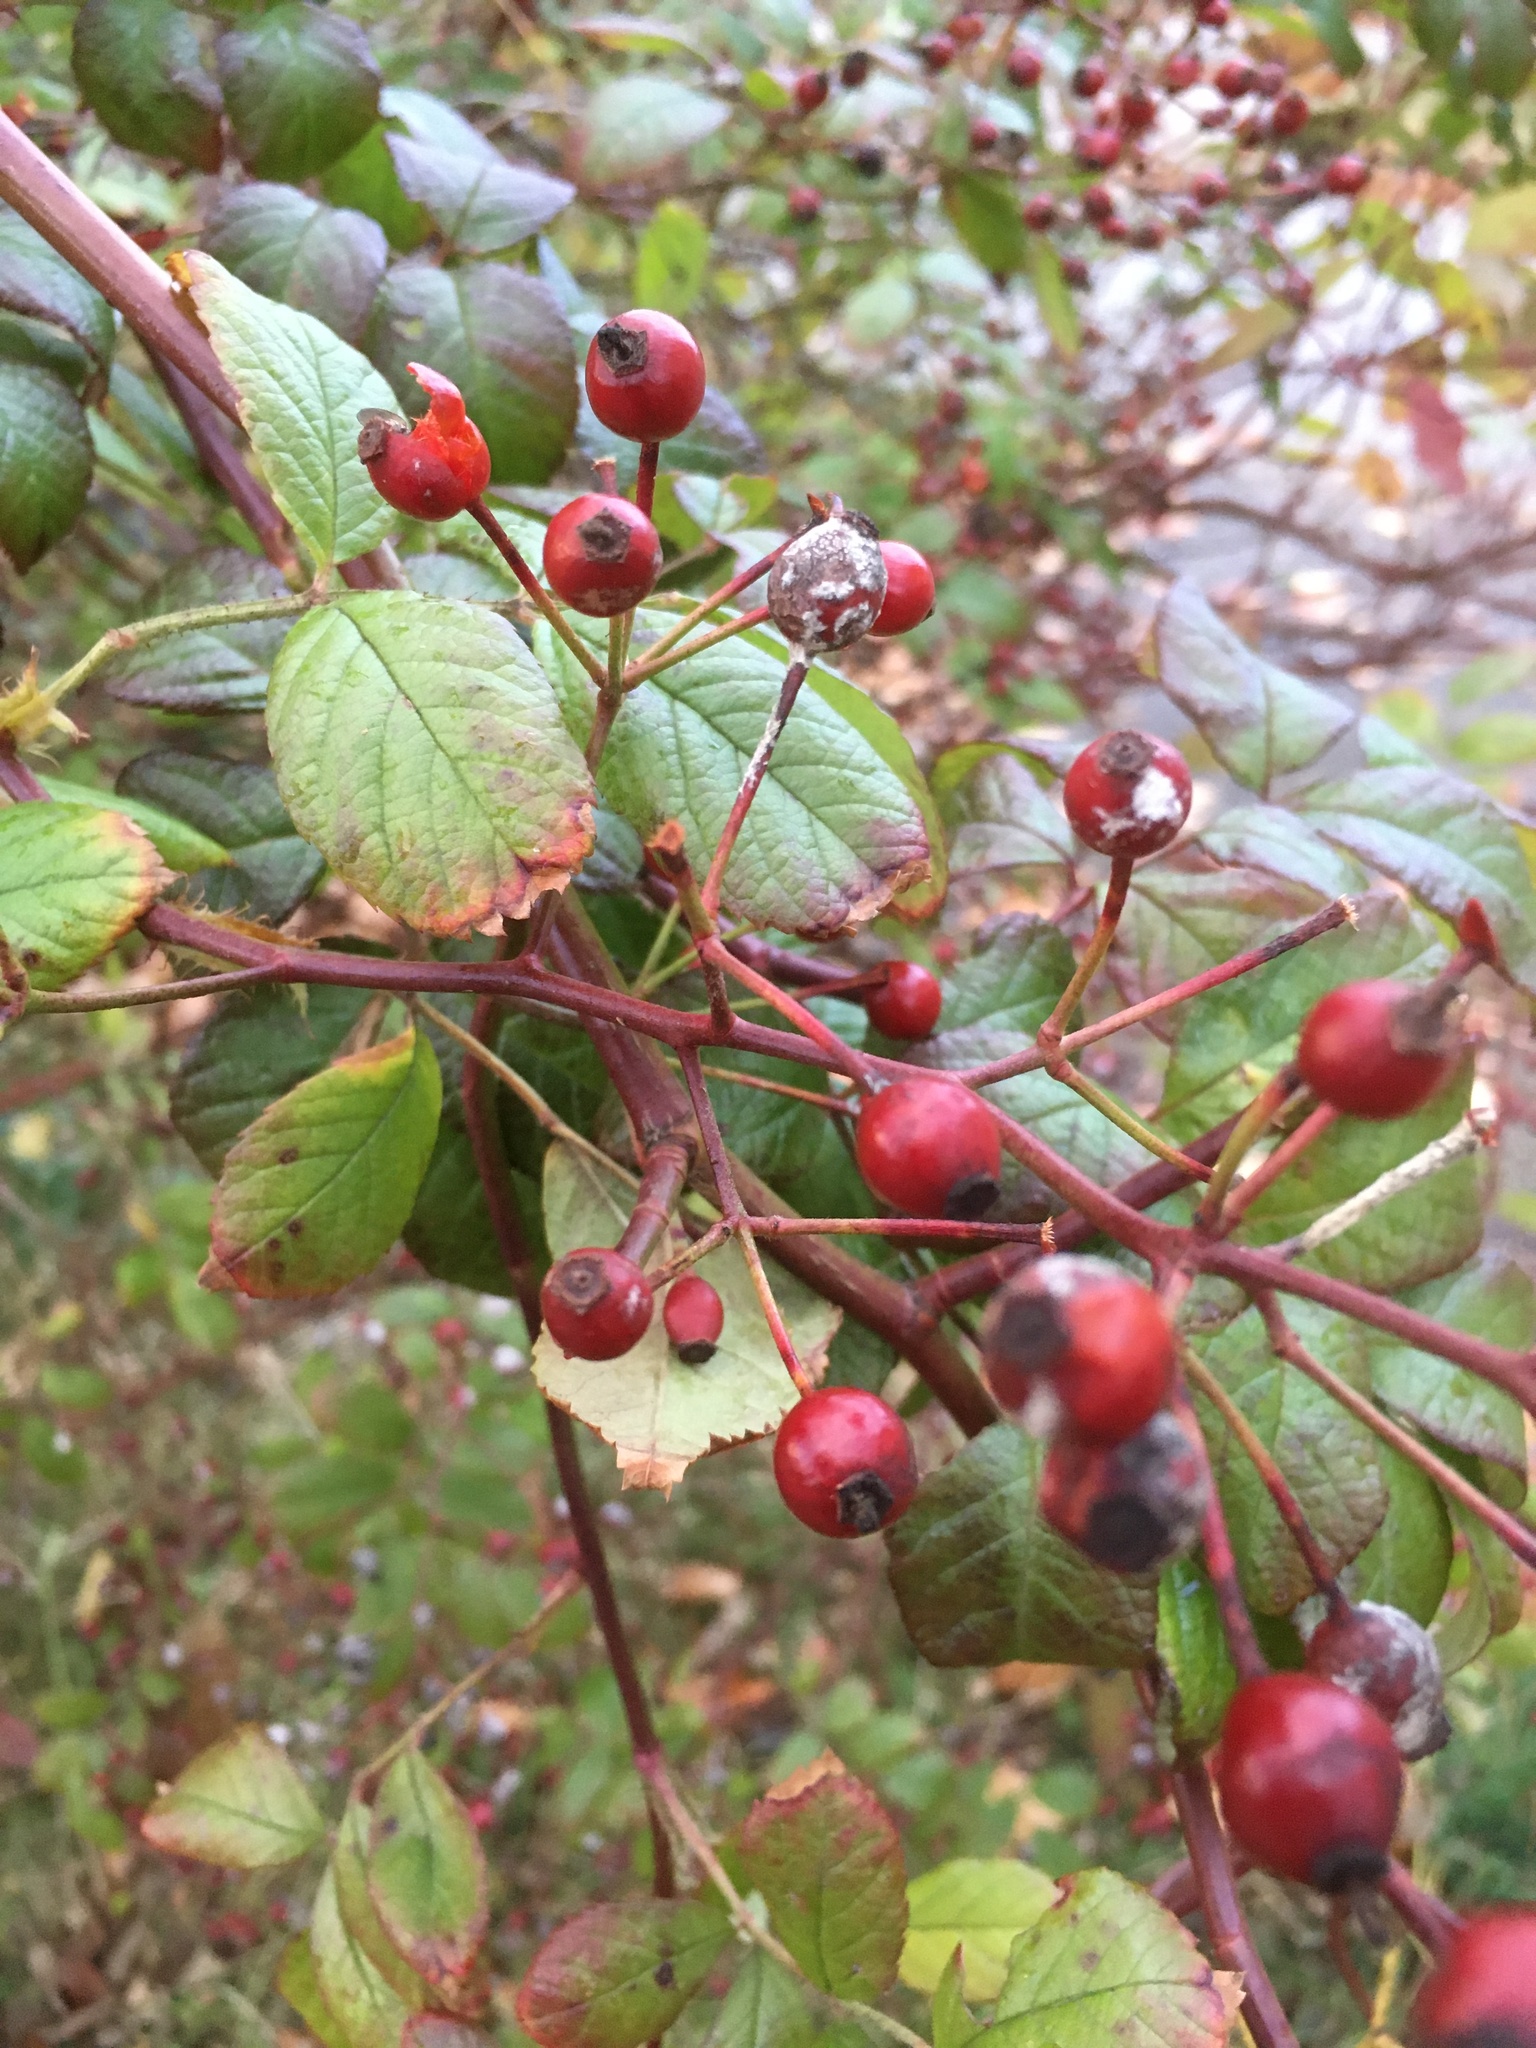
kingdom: Plantae
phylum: Tracheophyta
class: Magnoliopsida
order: Rosales
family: Rosaceae
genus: Rosa
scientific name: Rosa multiflora
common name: Multiflora rose
